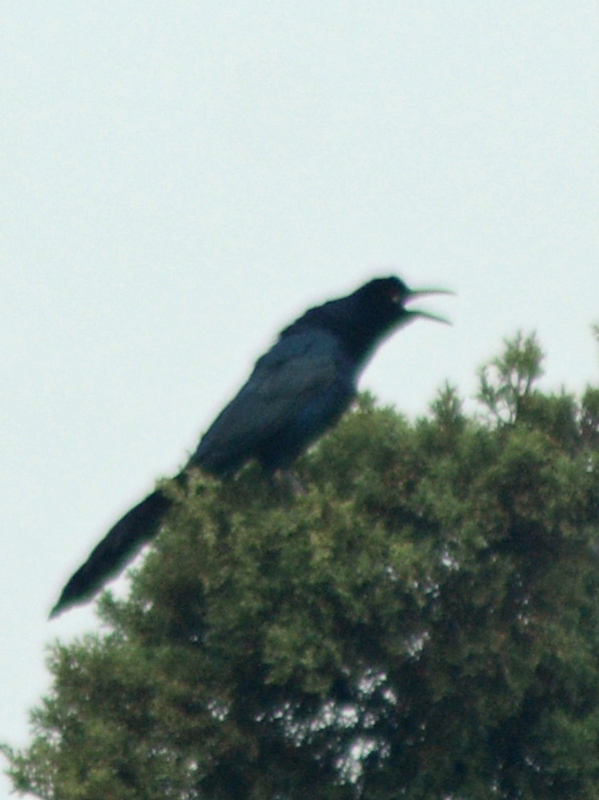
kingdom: Animalia
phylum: Chordata
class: Aves
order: Passeriformes
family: Icteridae
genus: Quiscalus
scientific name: Quiscalus mexicanus
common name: Great-tailed grackle
